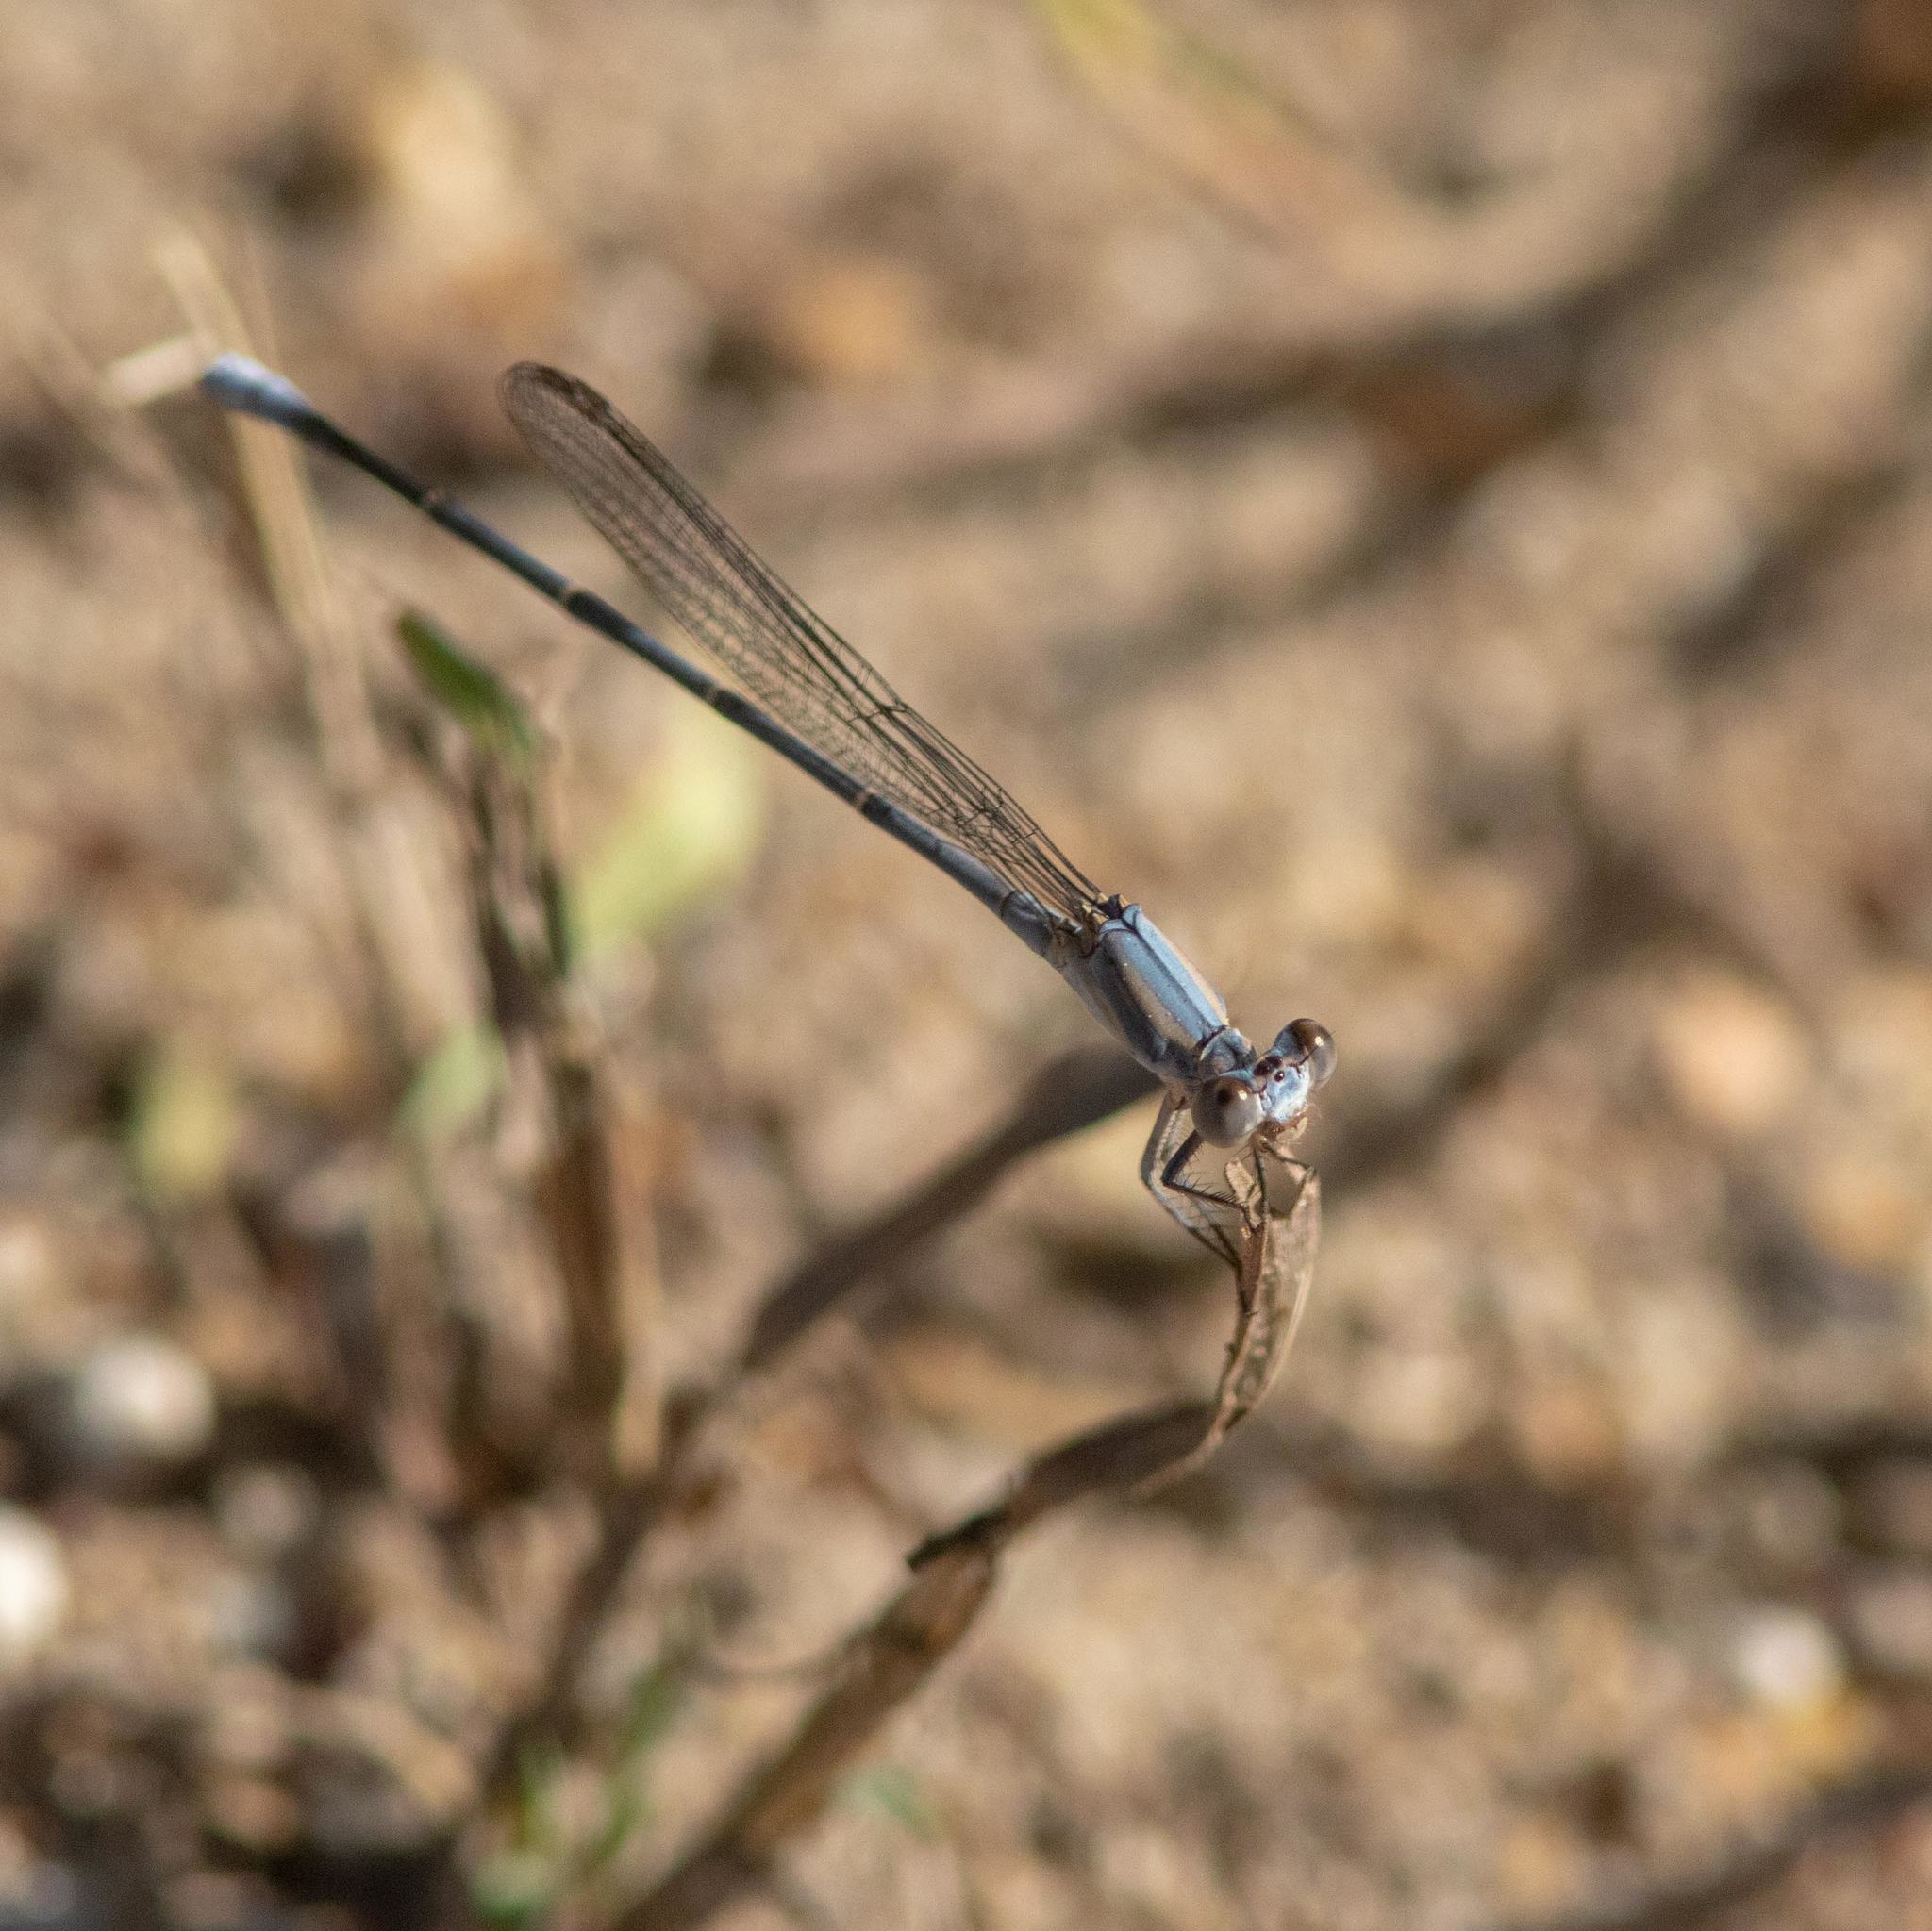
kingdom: Animalia
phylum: Arthropoda
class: Insecta
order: Odonata
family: Coenagrionidae
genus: Argia
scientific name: Argia moesta
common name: Powdered dancer
